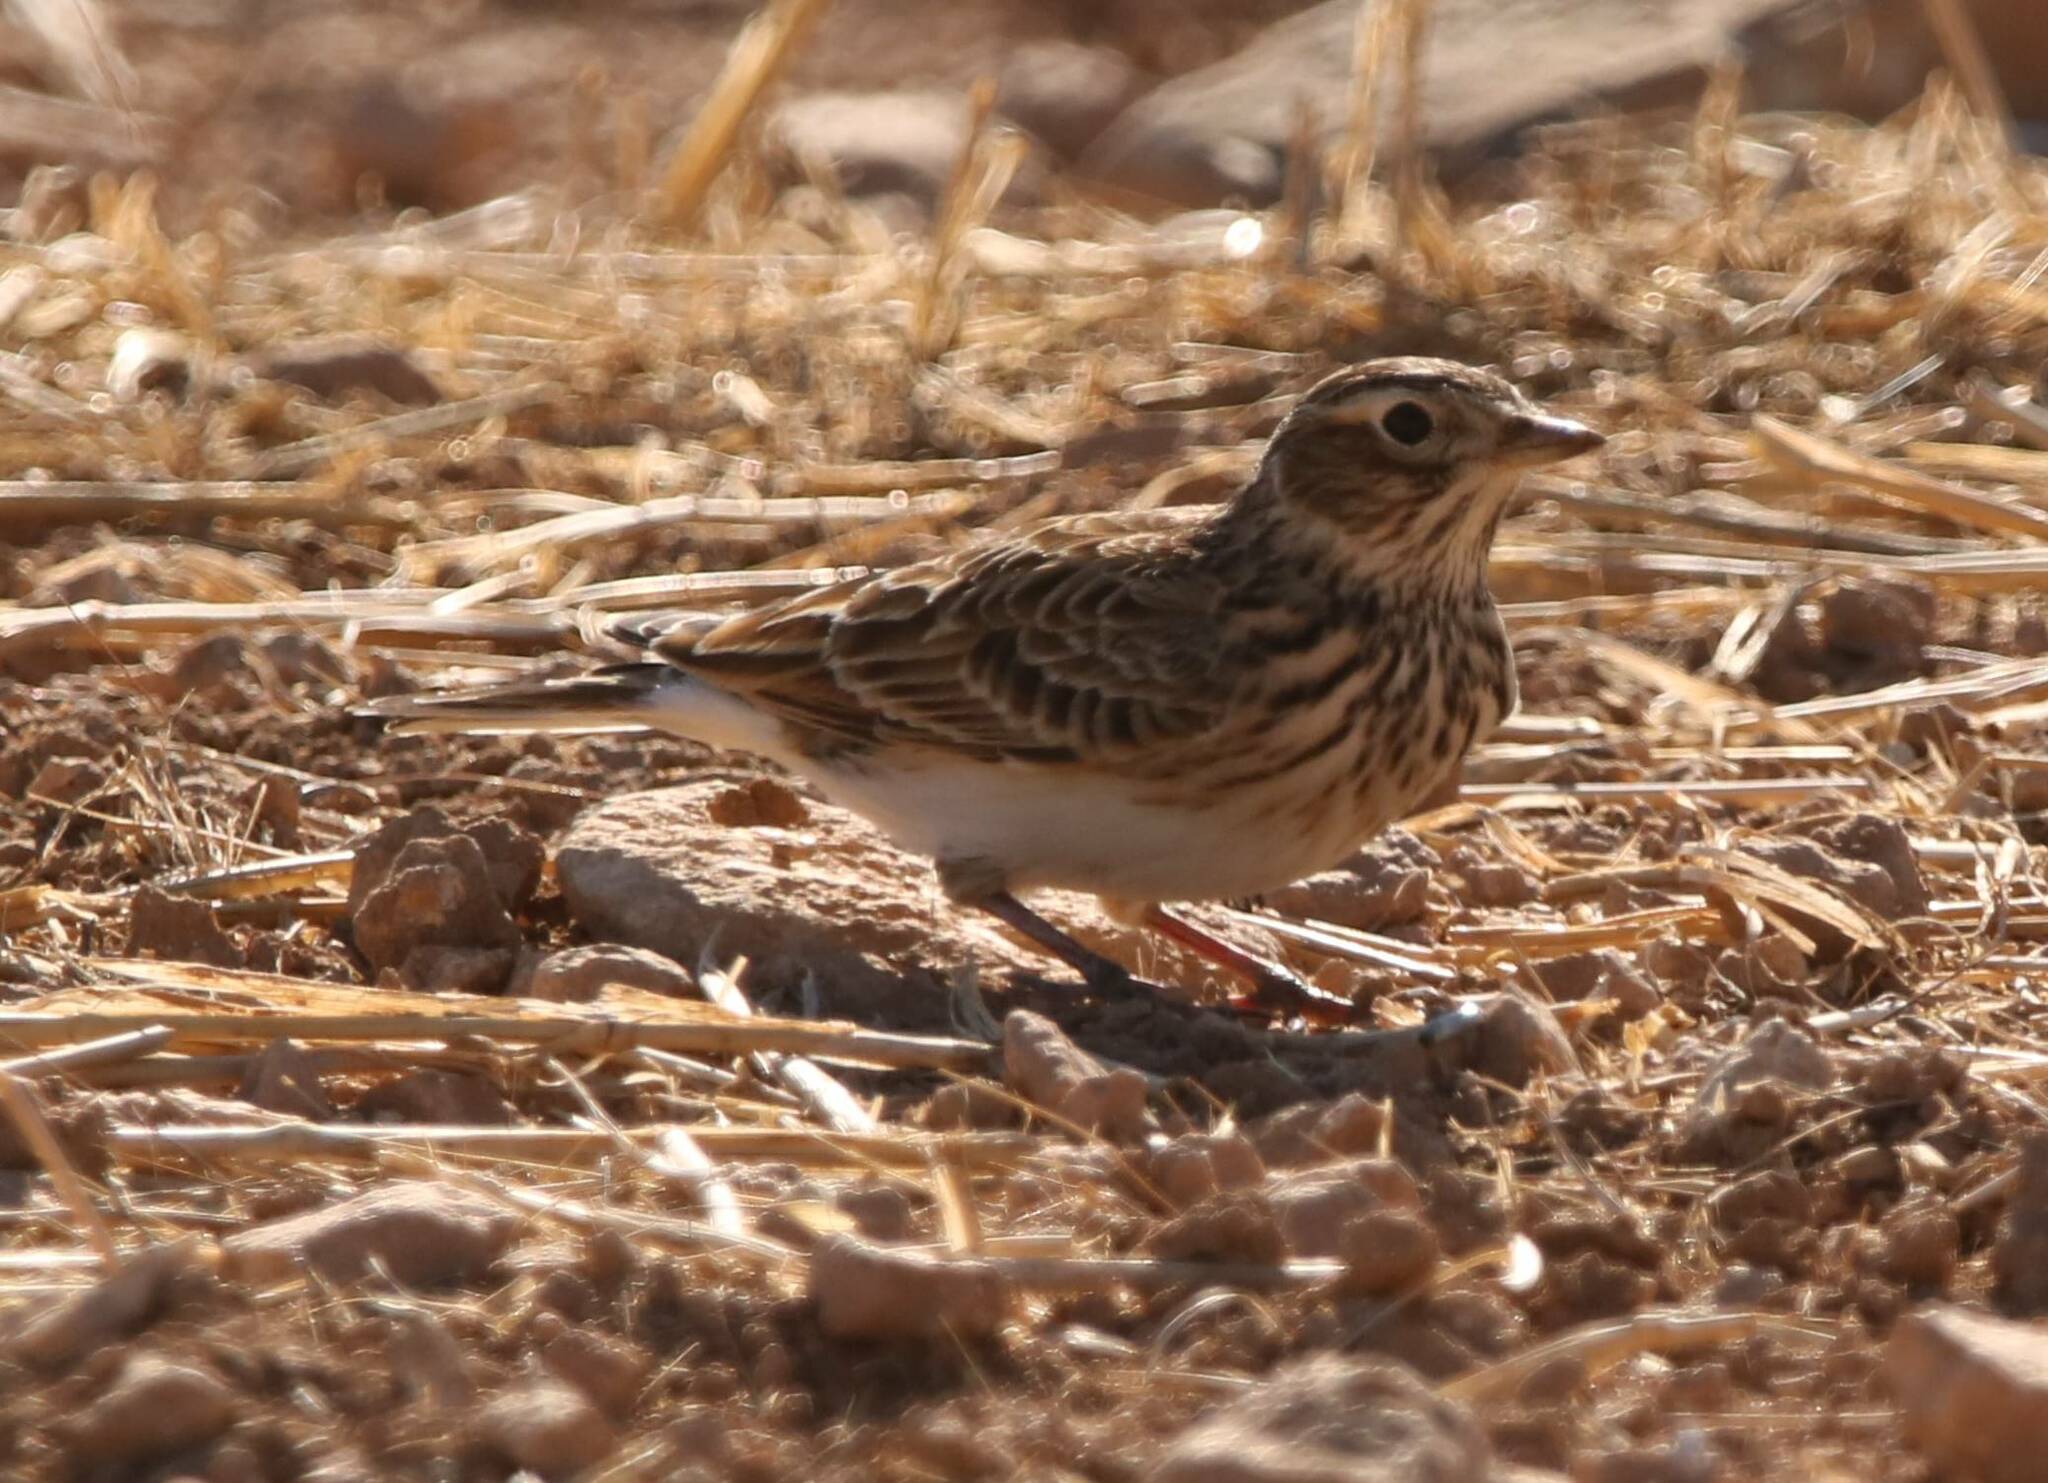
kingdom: Animalia
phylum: Chordata
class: Aves
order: Passeriformes
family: Alaudidae
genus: Alauda
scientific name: Alauda arvensis
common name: Eurasian skylark
